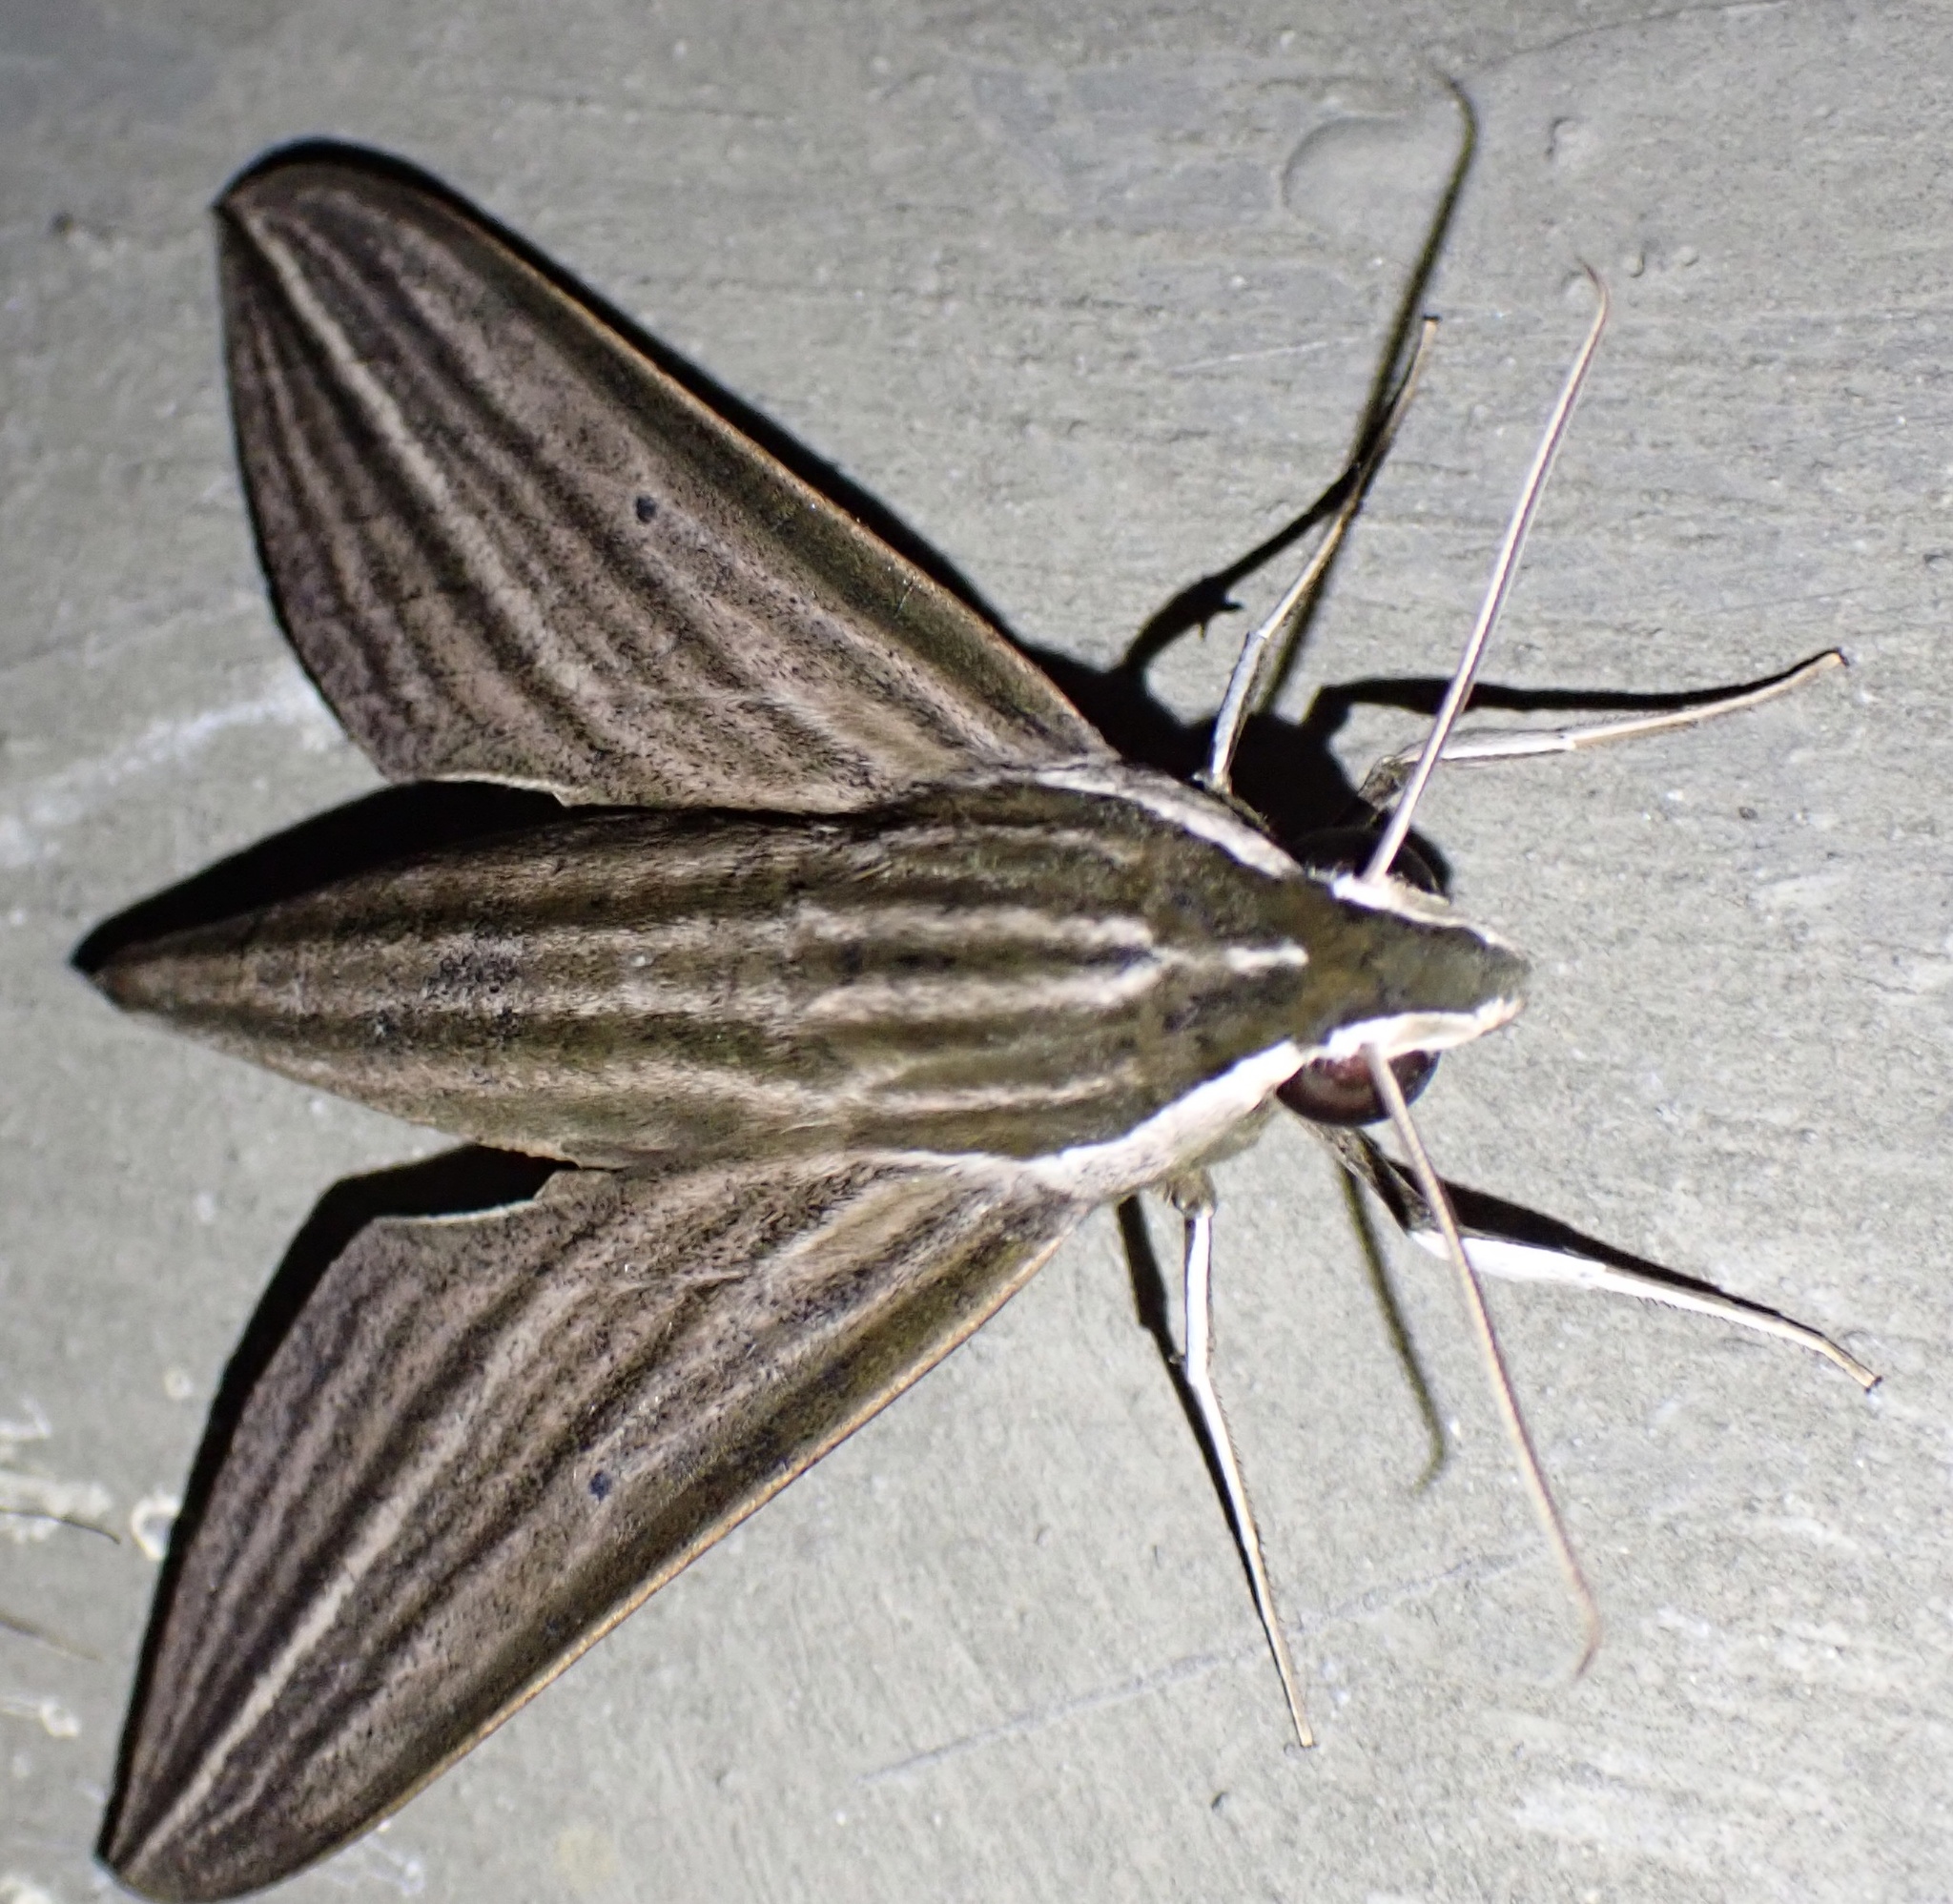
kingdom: Animalia
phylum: Arthropoda
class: Insecta
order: Lepidoptera
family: Sphingidae
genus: Theretra
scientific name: Theretra polistratus
